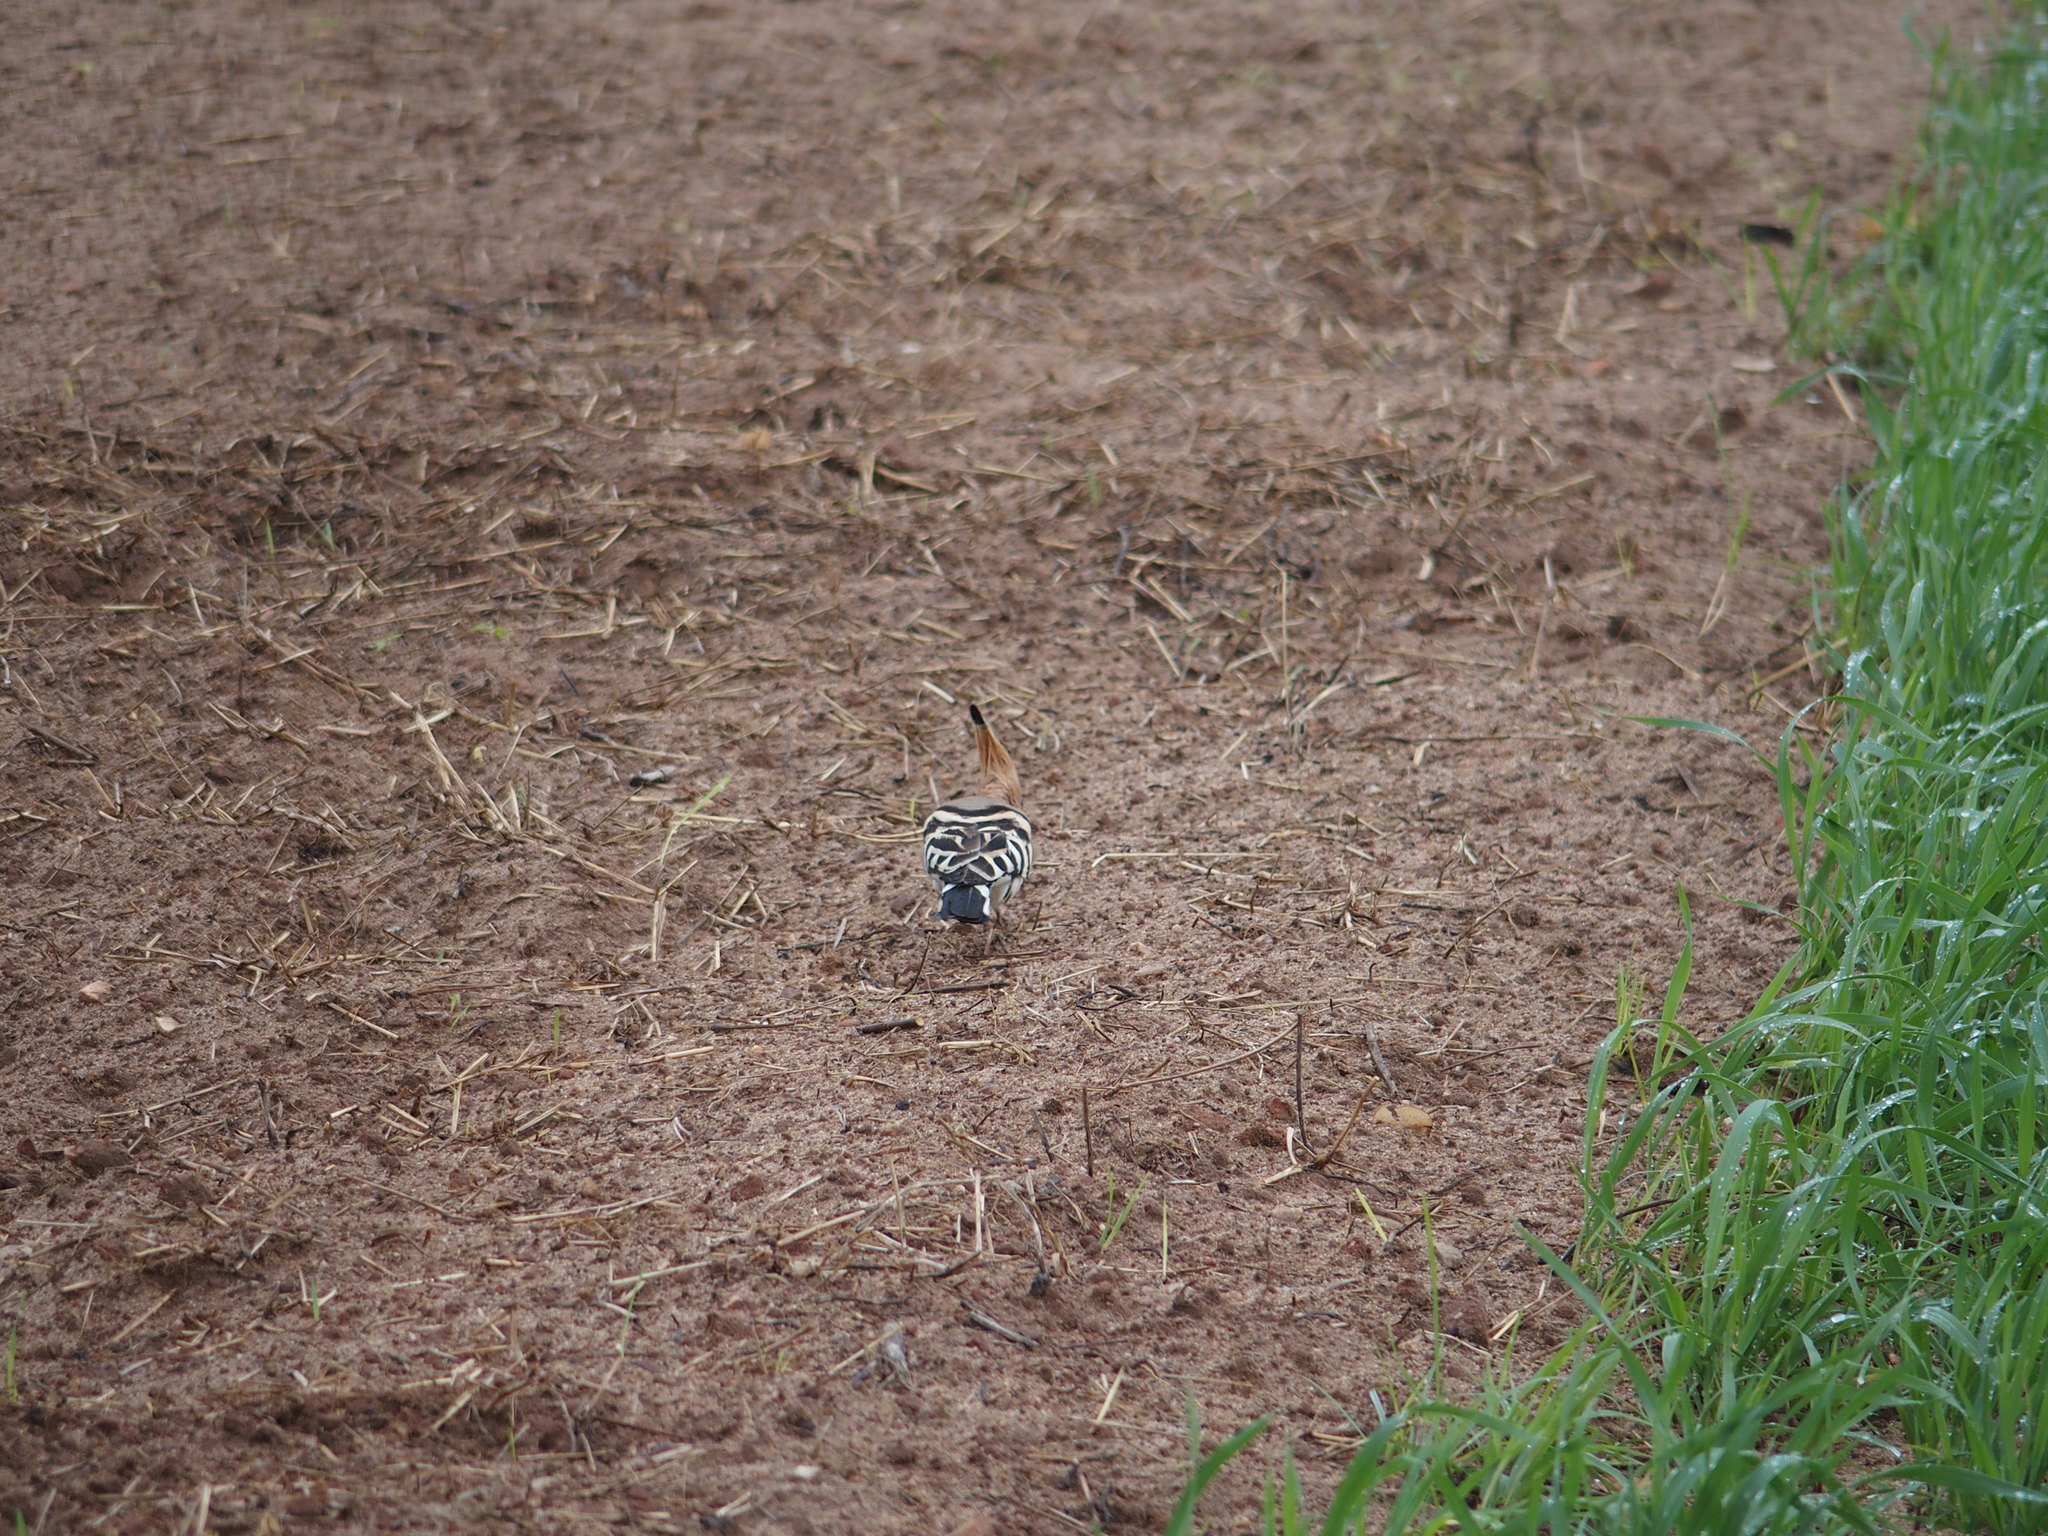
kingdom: Animalia
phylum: Chordata
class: Aves
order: Bucerotiformes
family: Upupidae
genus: Upupa
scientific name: Upupa epops
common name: Eurasian hoopoe
